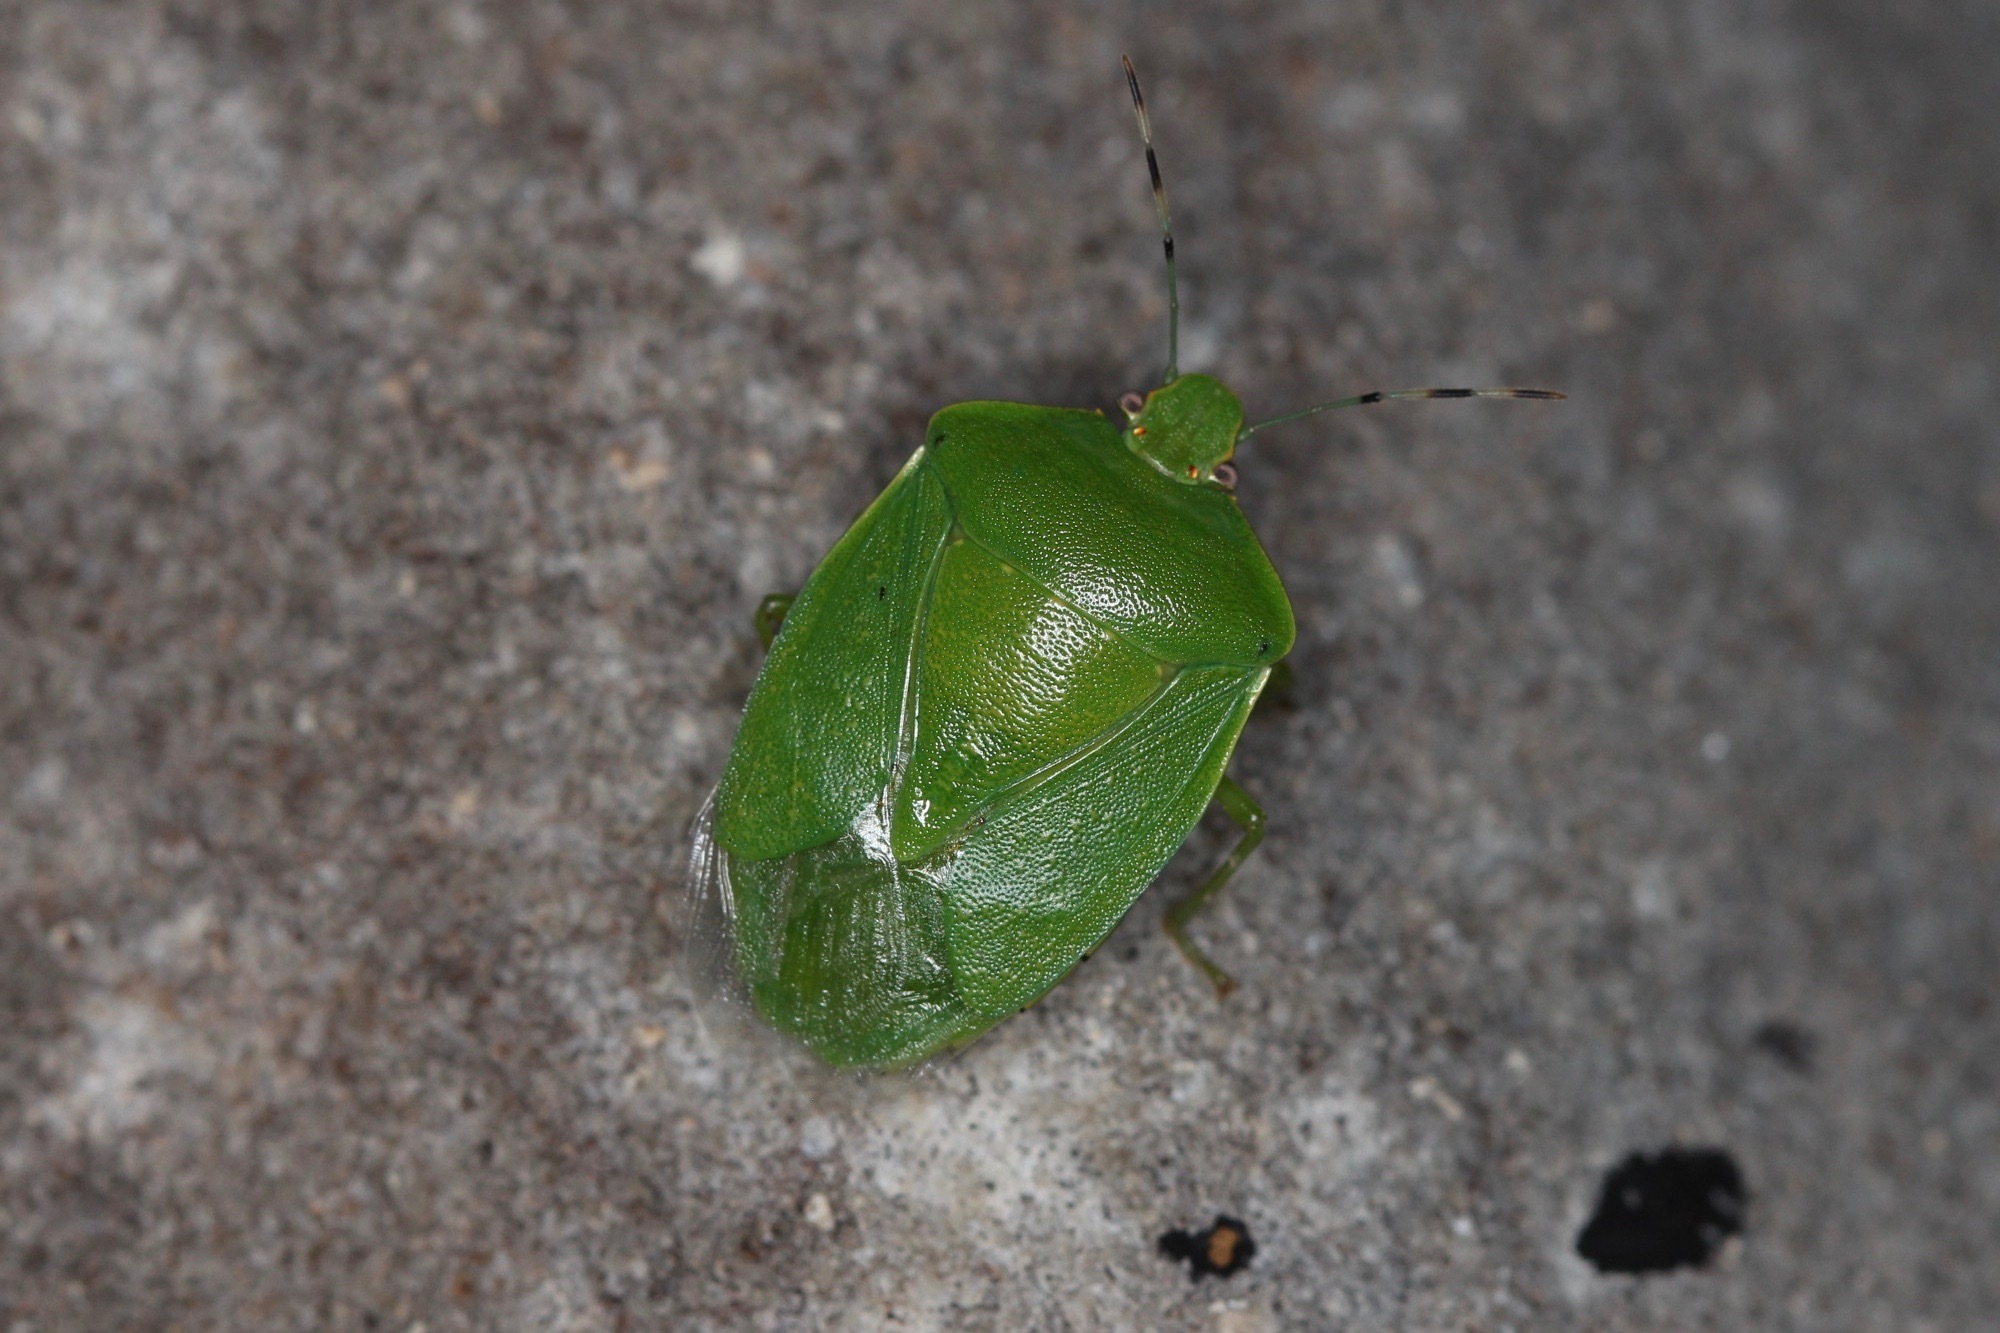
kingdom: Animalia
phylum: Arthropoda
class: Insecta
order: Hemiptera
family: Pentatomidae
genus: Chinavia
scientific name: Chinavia hilaris
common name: Green stink bug
